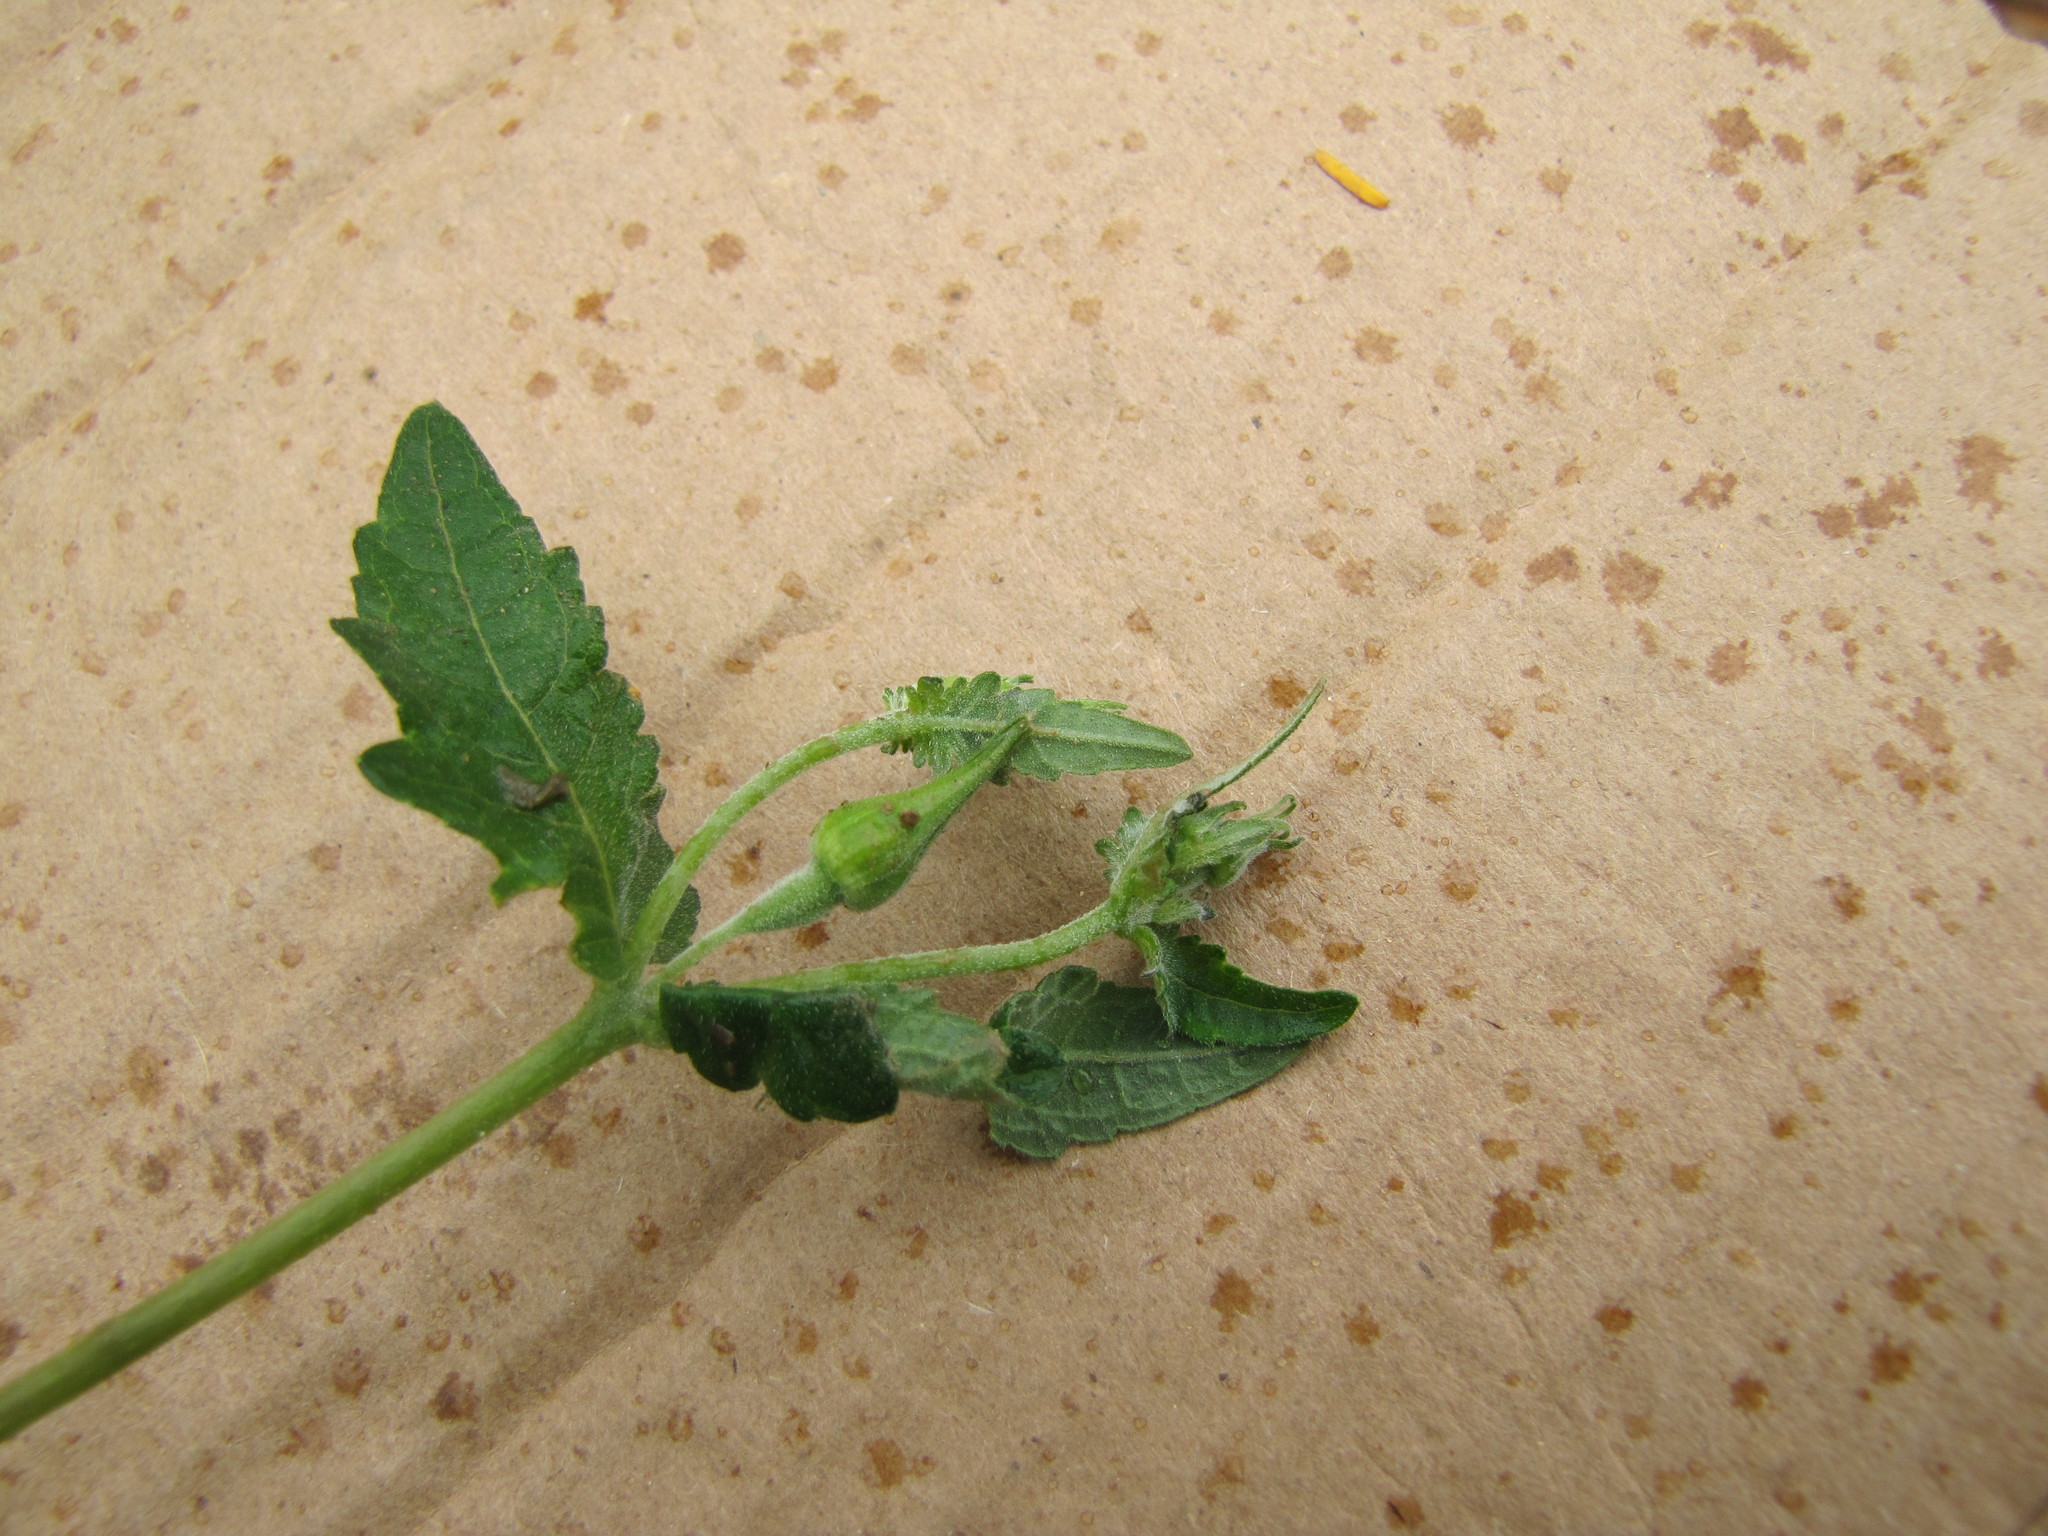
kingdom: Plantae
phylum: Tracheophyta
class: Magnoliopsida
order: Cornales
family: Loasaceae
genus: Mentzelia
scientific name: Mentzelia scabra
